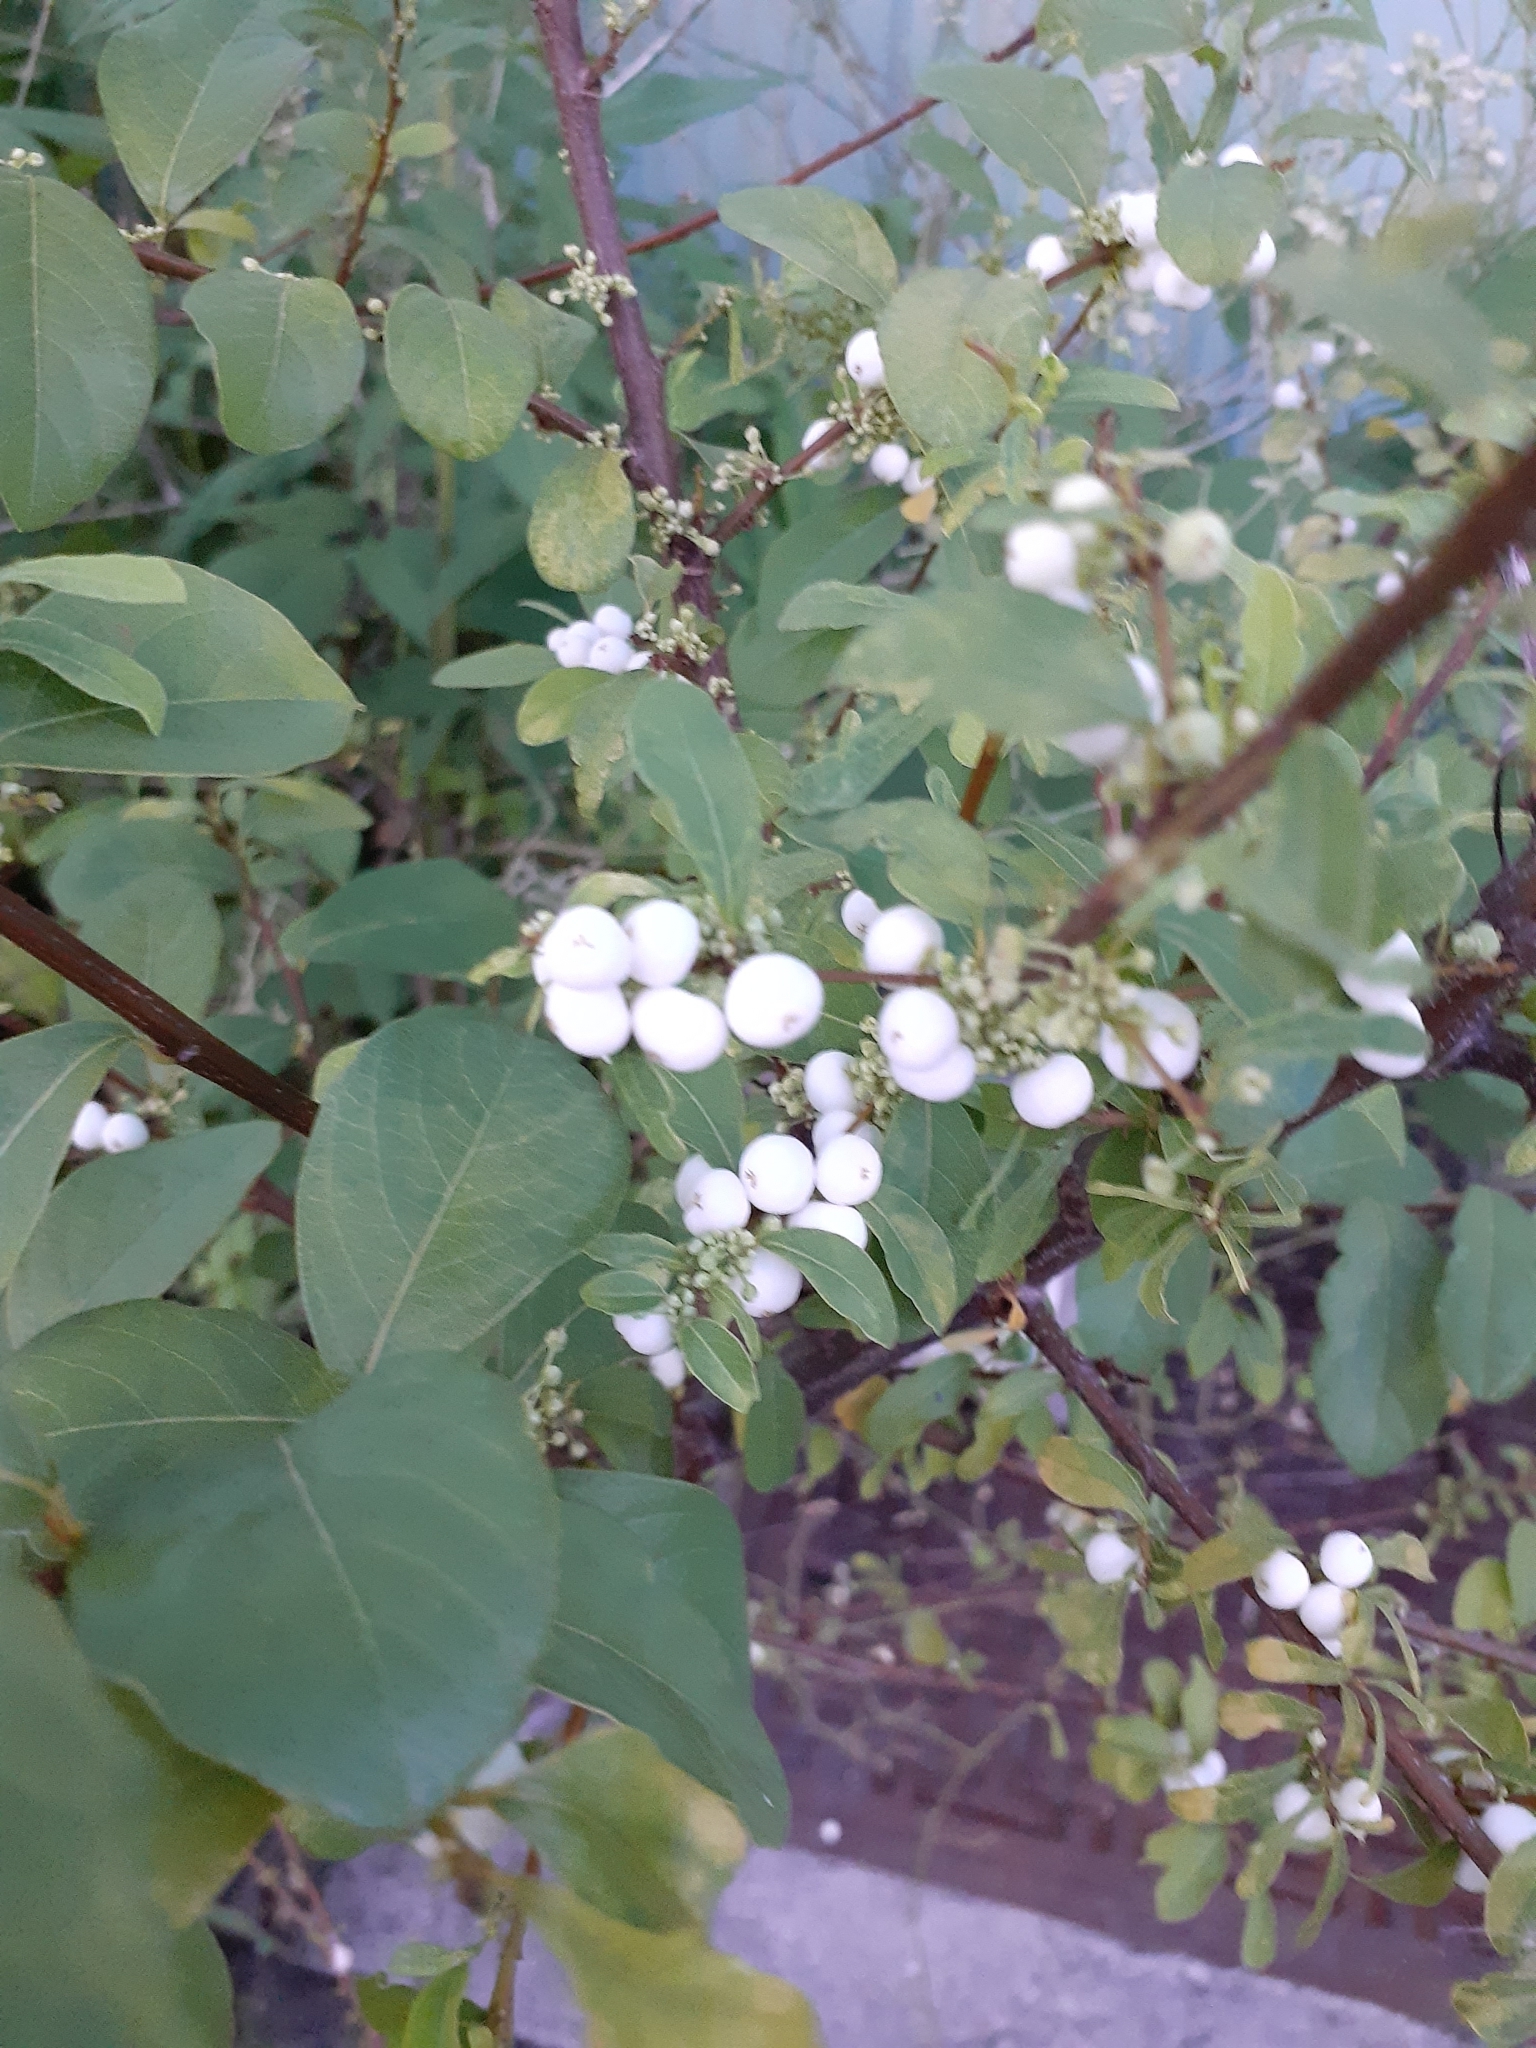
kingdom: Plantae
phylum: Tracheophyta
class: Magnoliopsida
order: Malpighiales
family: Phyllanthaceae
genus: Flueggea
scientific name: Flueggea virosa
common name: Common bushweed
